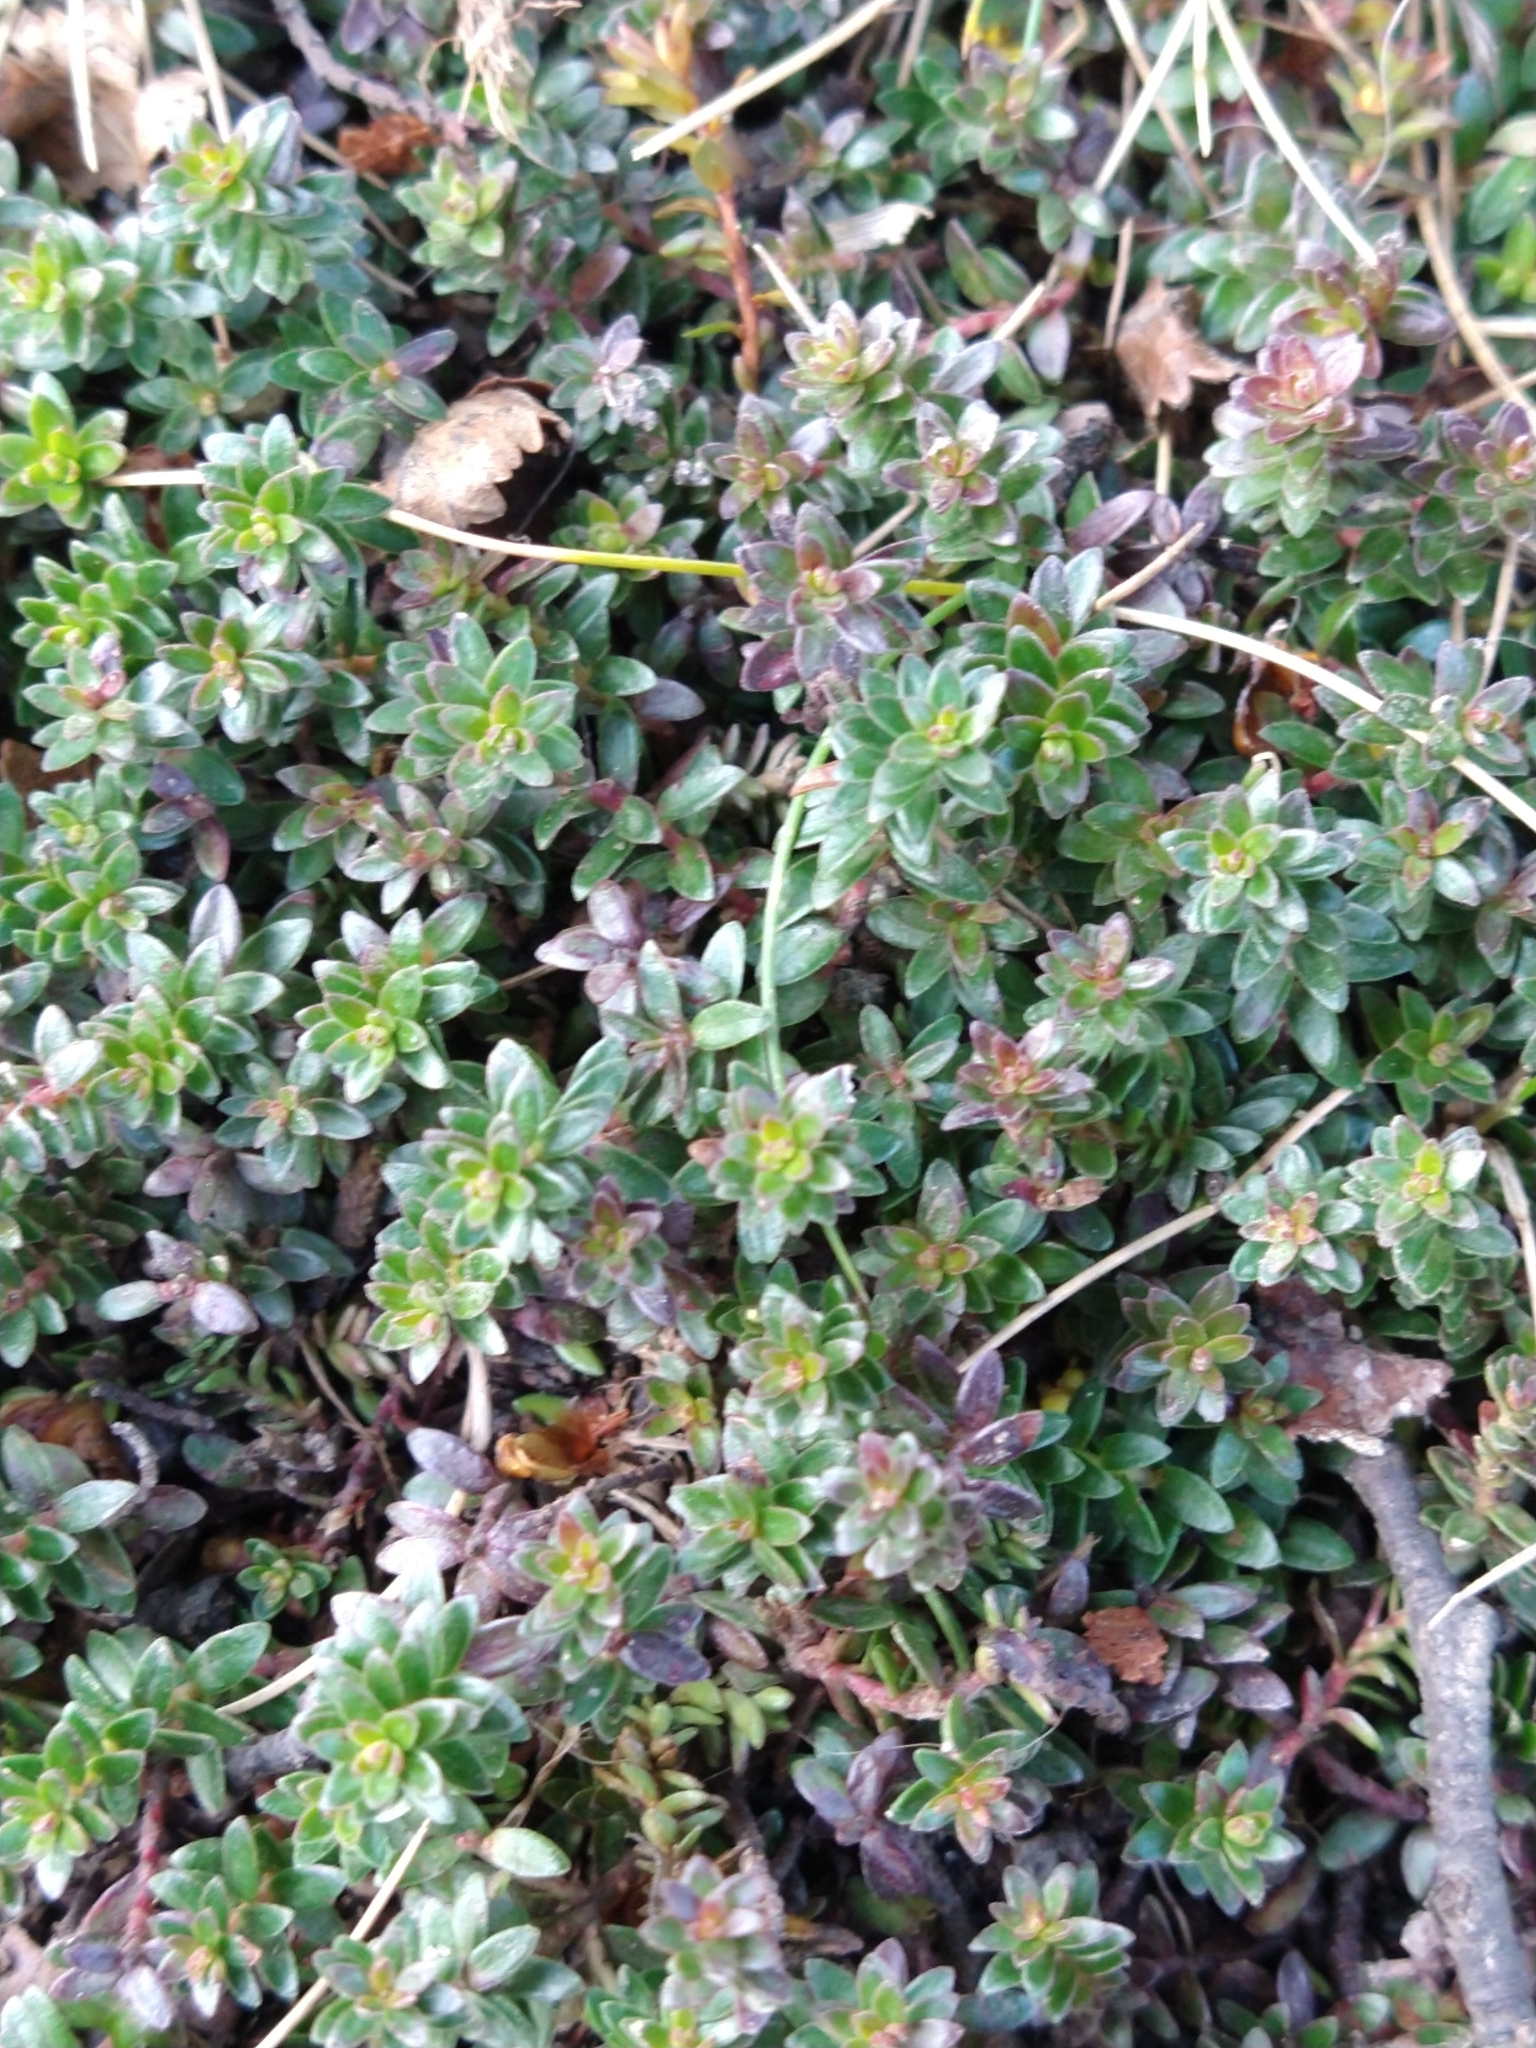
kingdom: Plantae
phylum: Tracheophyta
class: Magnoliopsida
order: Ericales
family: Ericaceae
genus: Empetrum
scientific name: Empetrum rubrum
